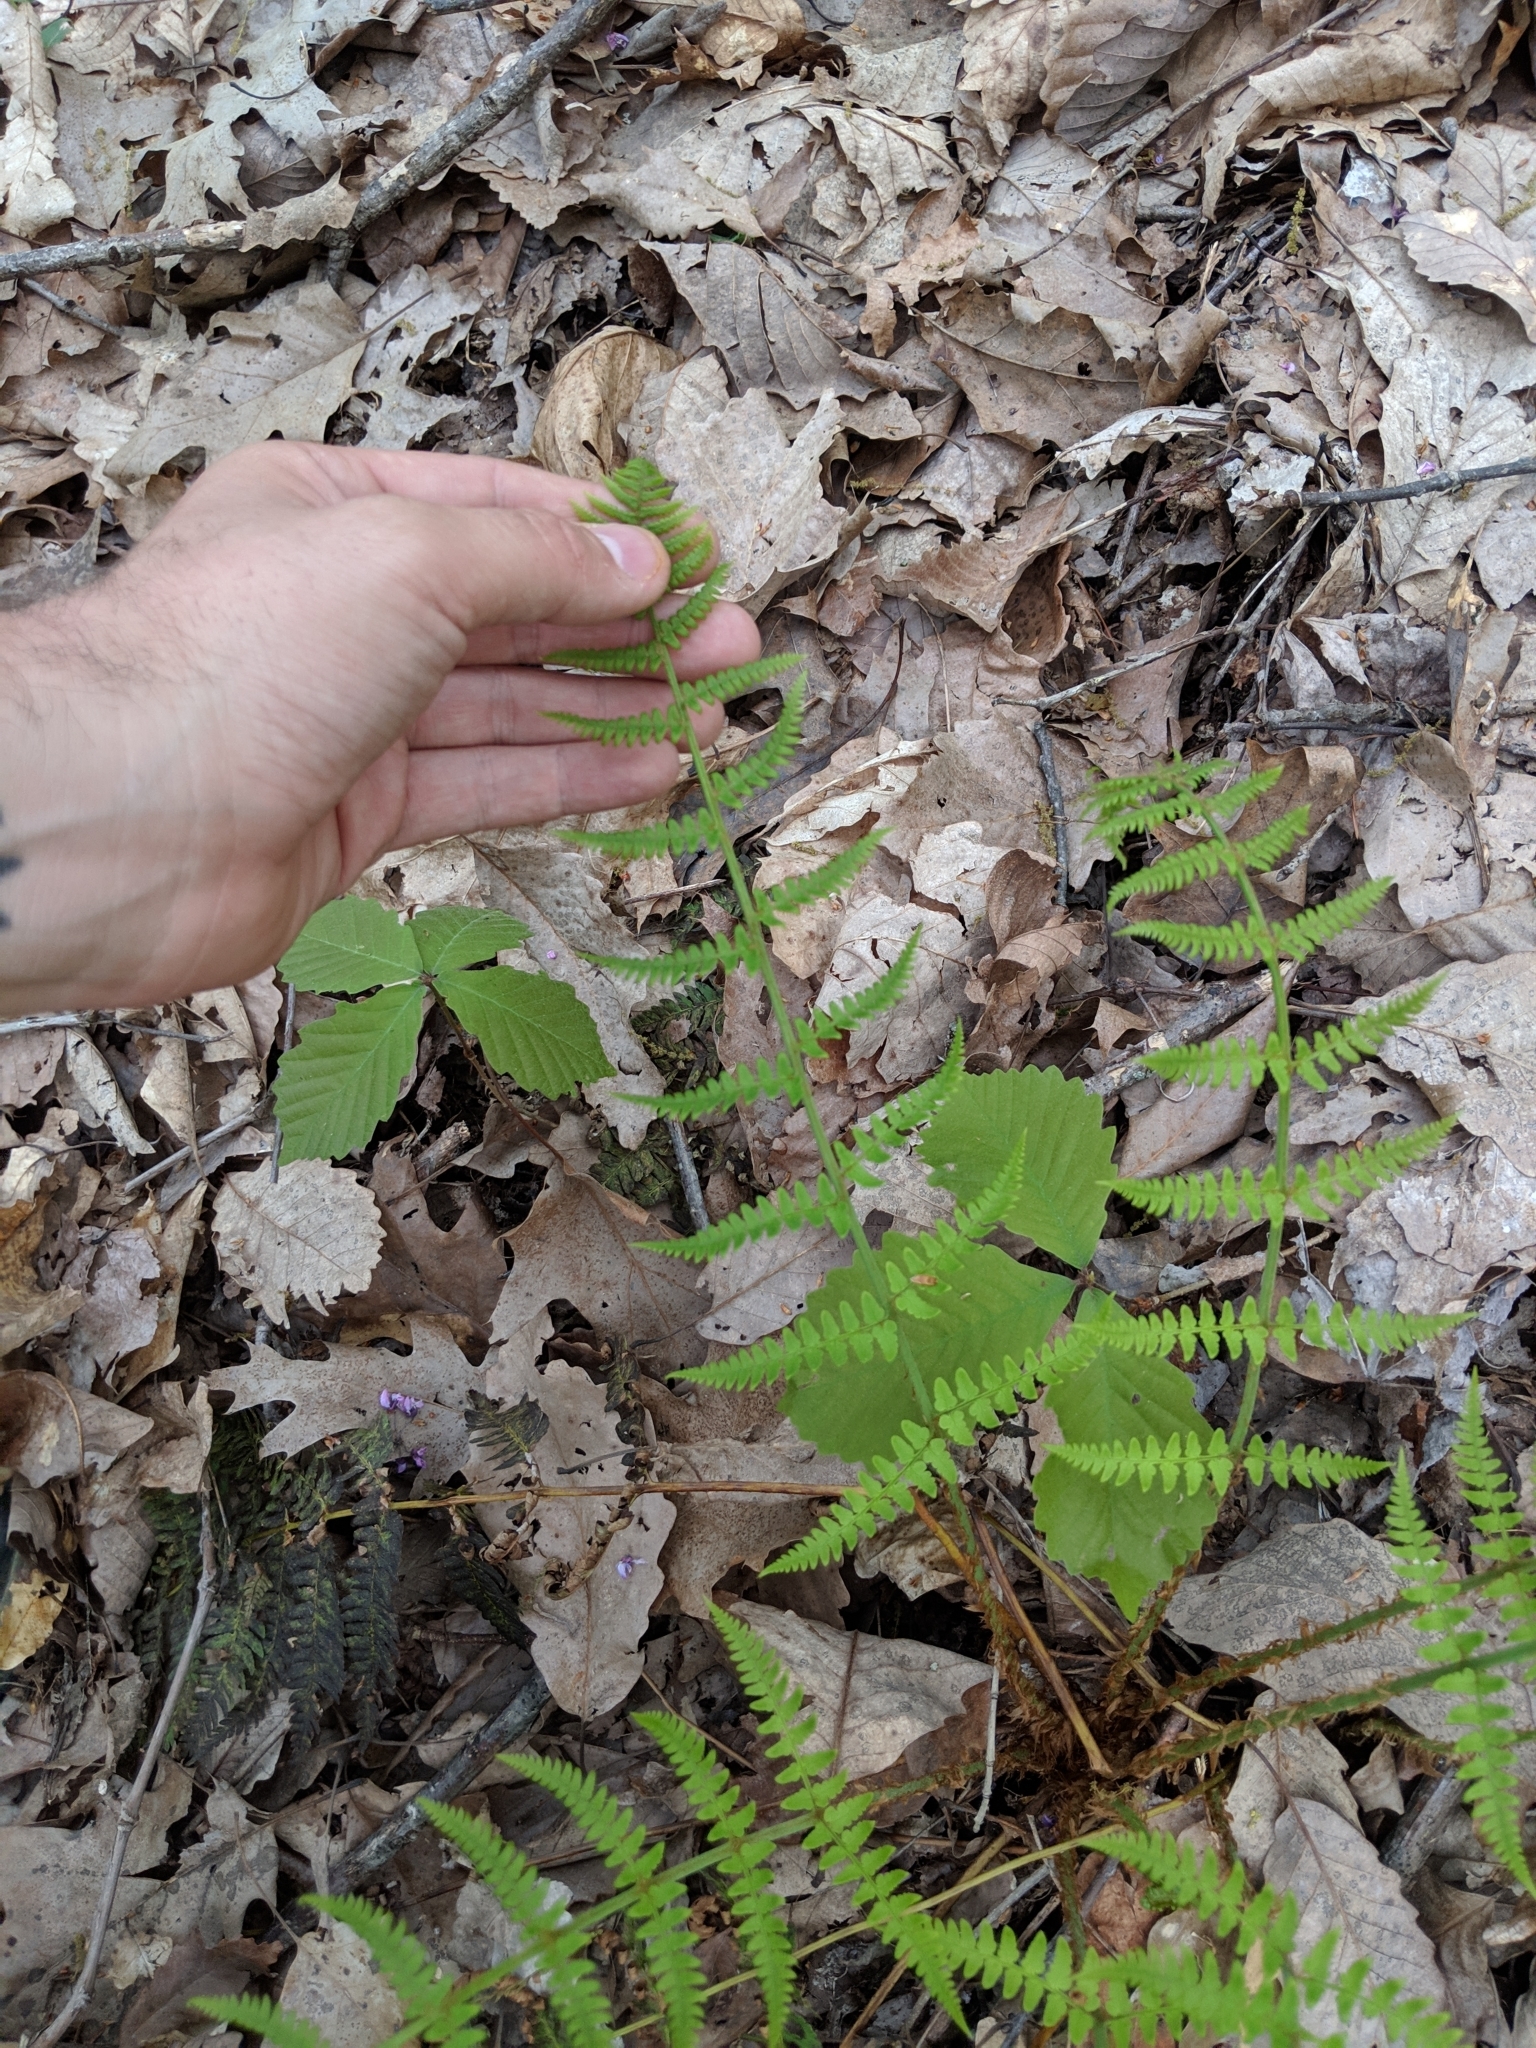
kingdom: Plantae
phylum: Tracheophyta
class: Polypodiopsida
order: Polypodiales
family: Dryopteridaceae
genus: Dryopteris
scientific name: Dryopteris marginalis
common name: Marginal wood fern
